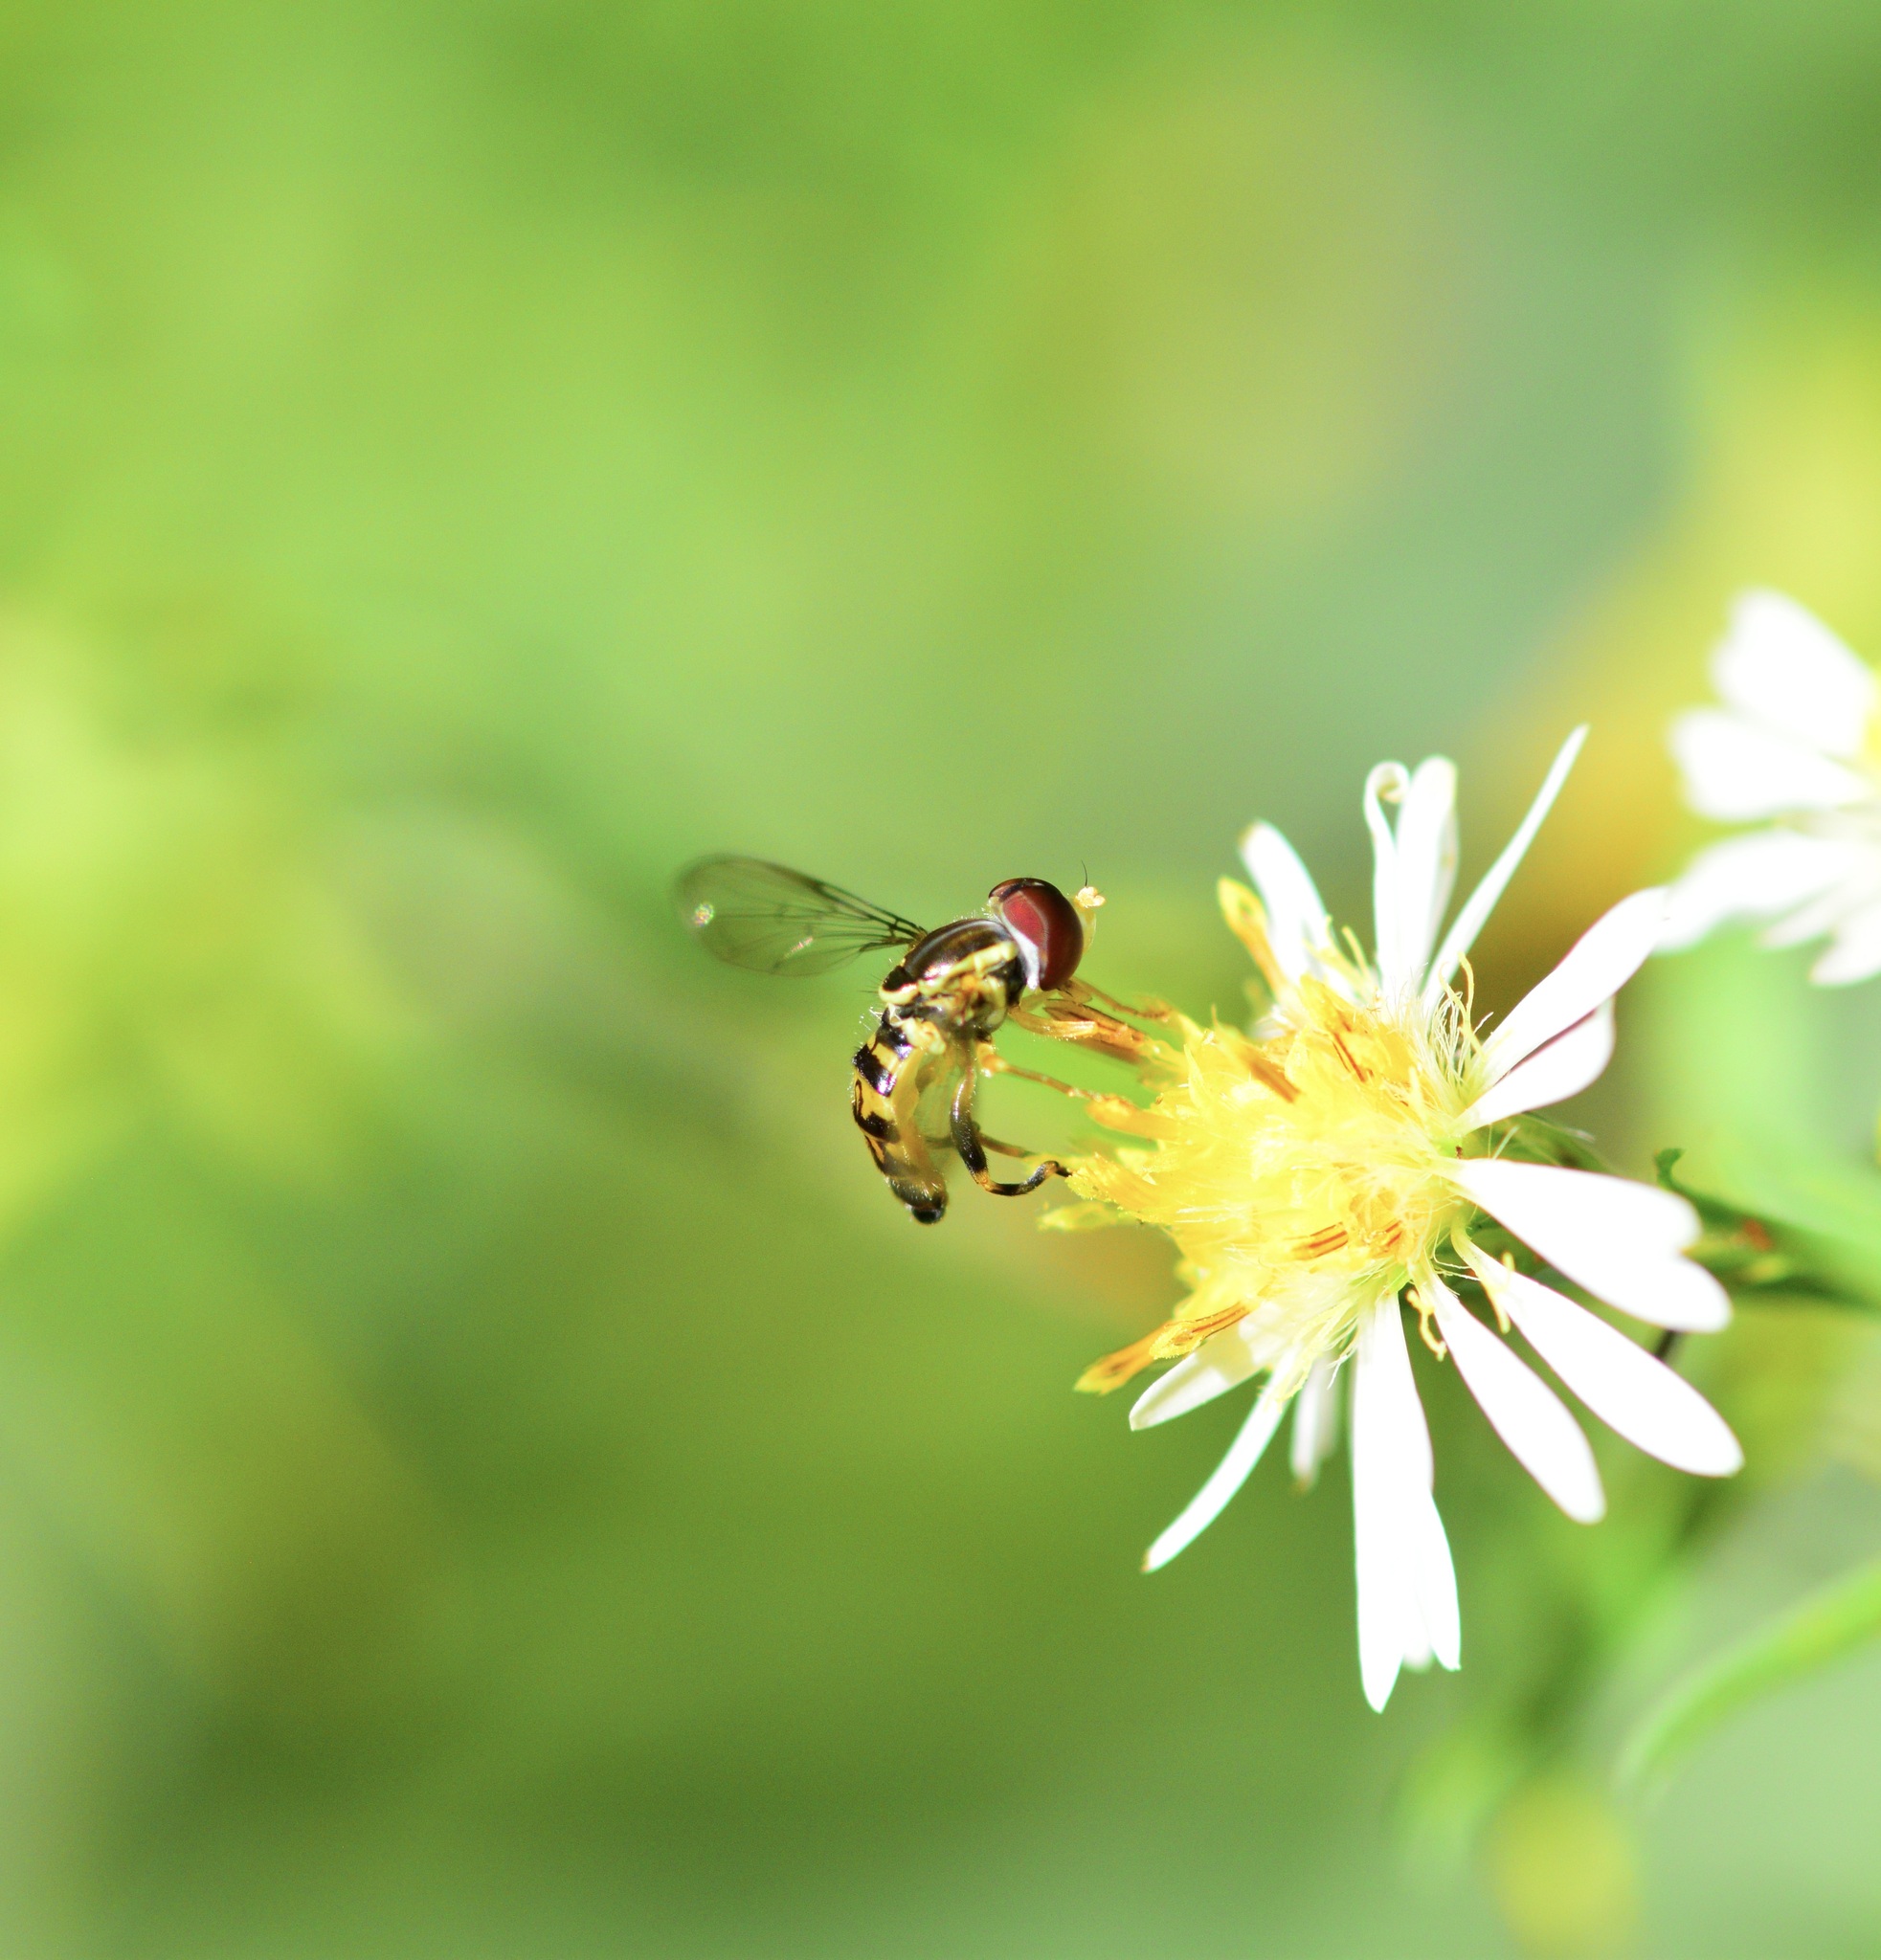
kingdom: Animalia
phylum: Arthropoda
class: Insecta
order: Diptera
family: Syrphidae
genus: Toxomerus
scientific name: Toxomerus geminatus
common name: Eastern calligrapher
